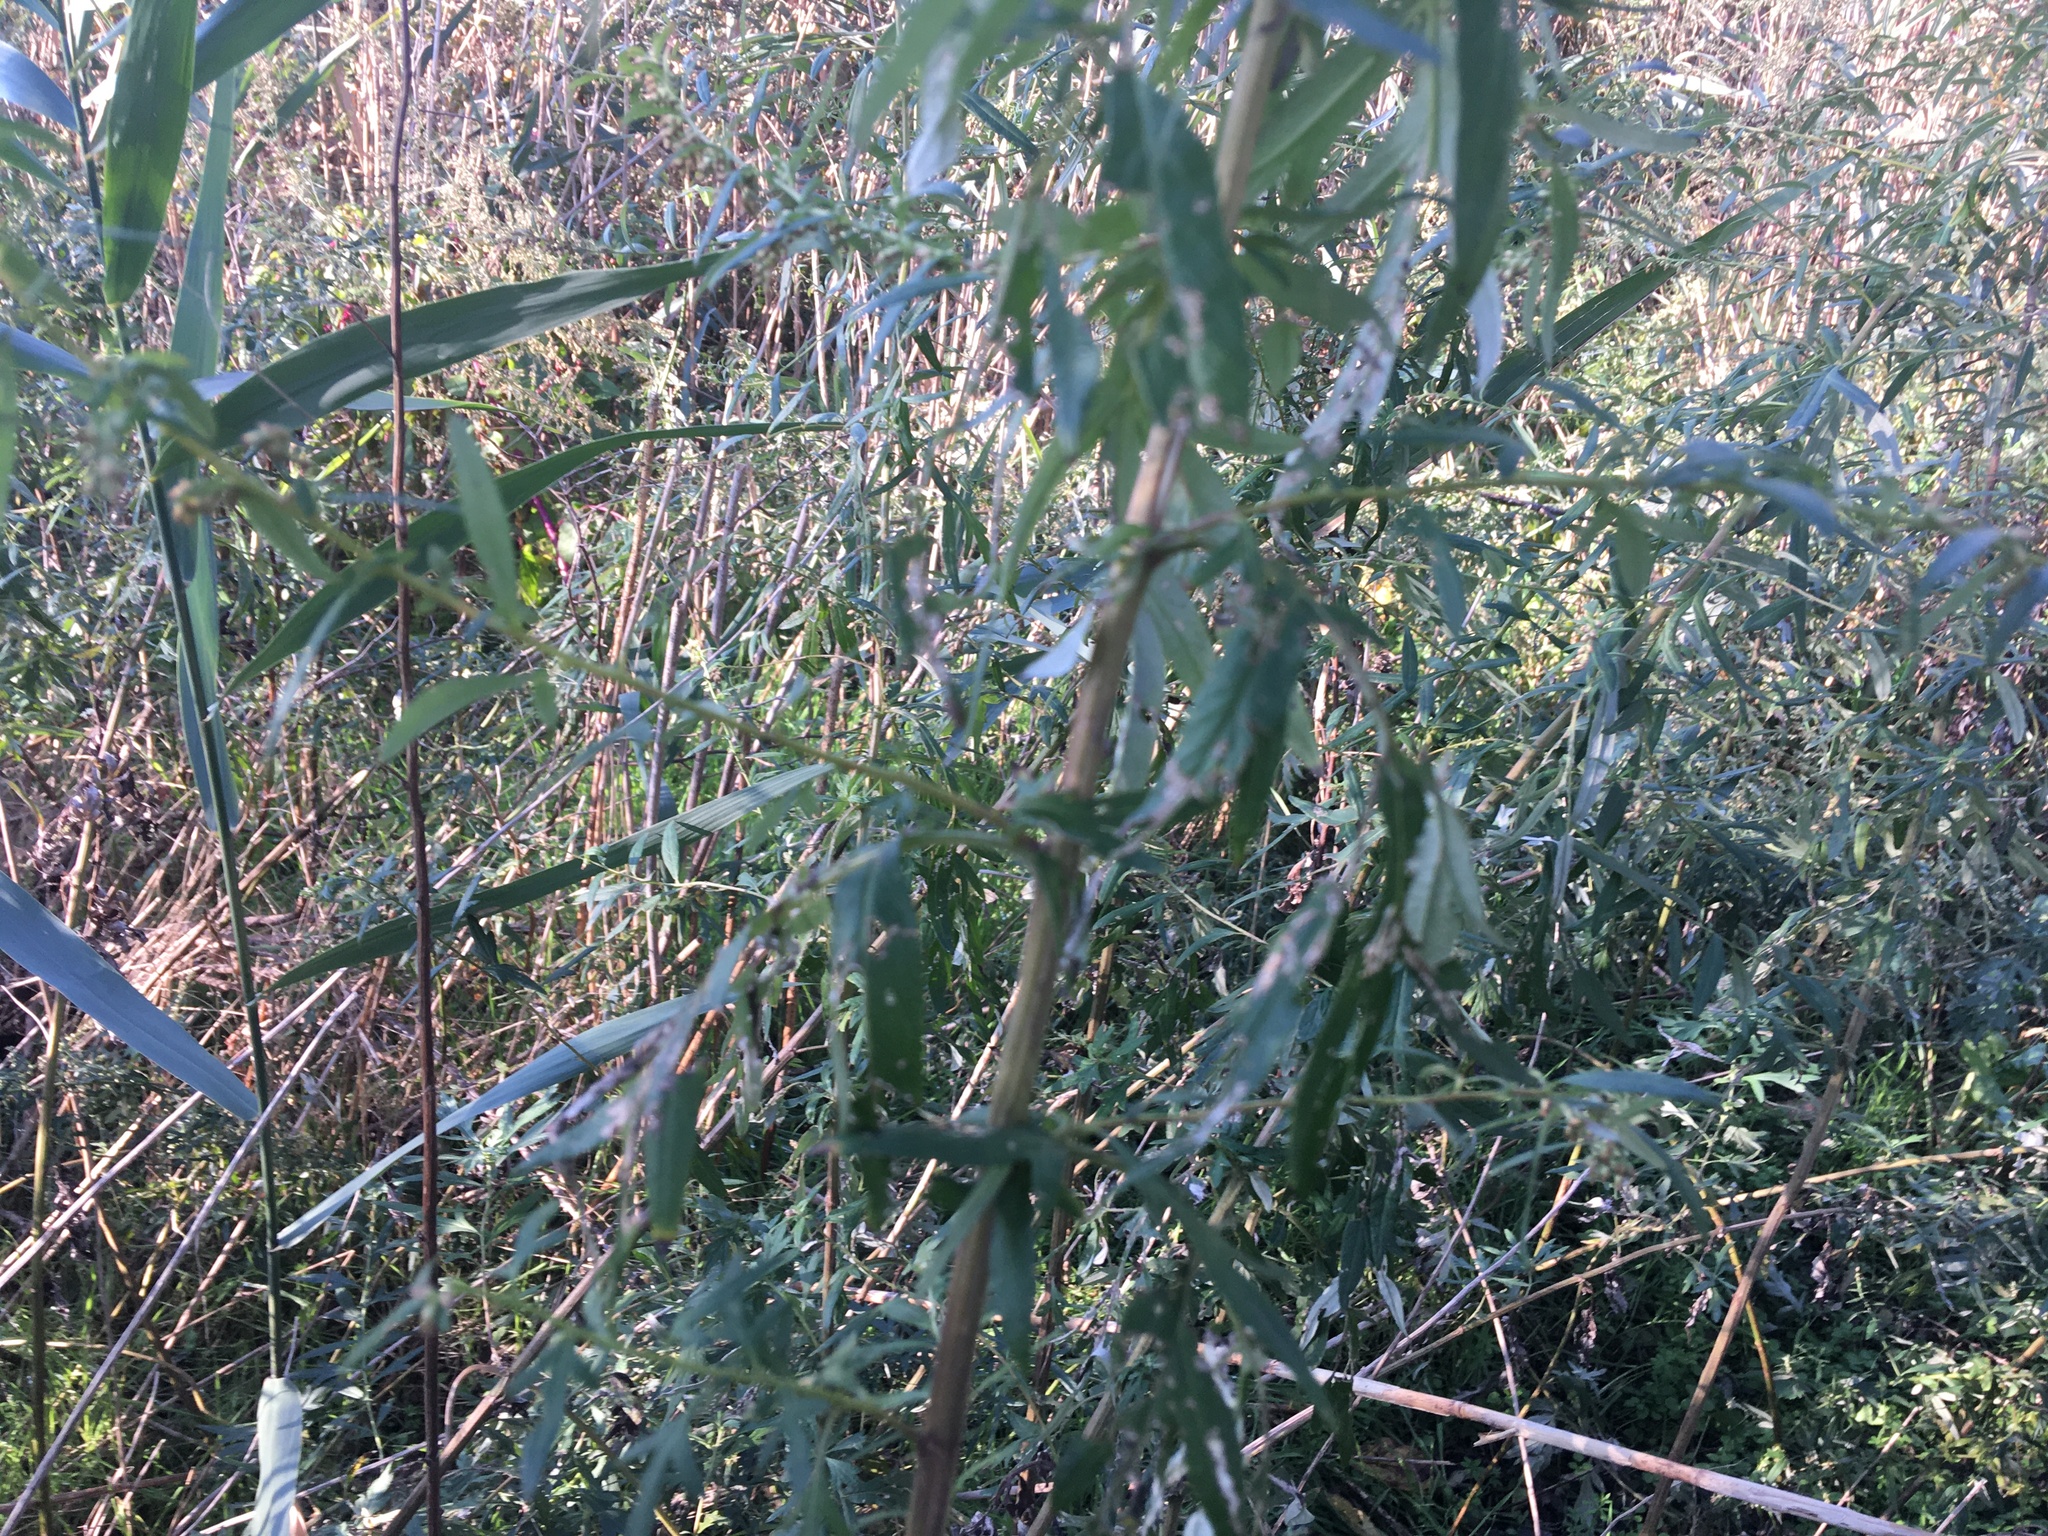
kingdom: Plantae
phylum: Tracheophyta
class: Magnoliopsida
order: Asterales
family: Asteraceae
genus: Artemisia
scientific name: Artemisia vulgaris
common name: Mugwort
